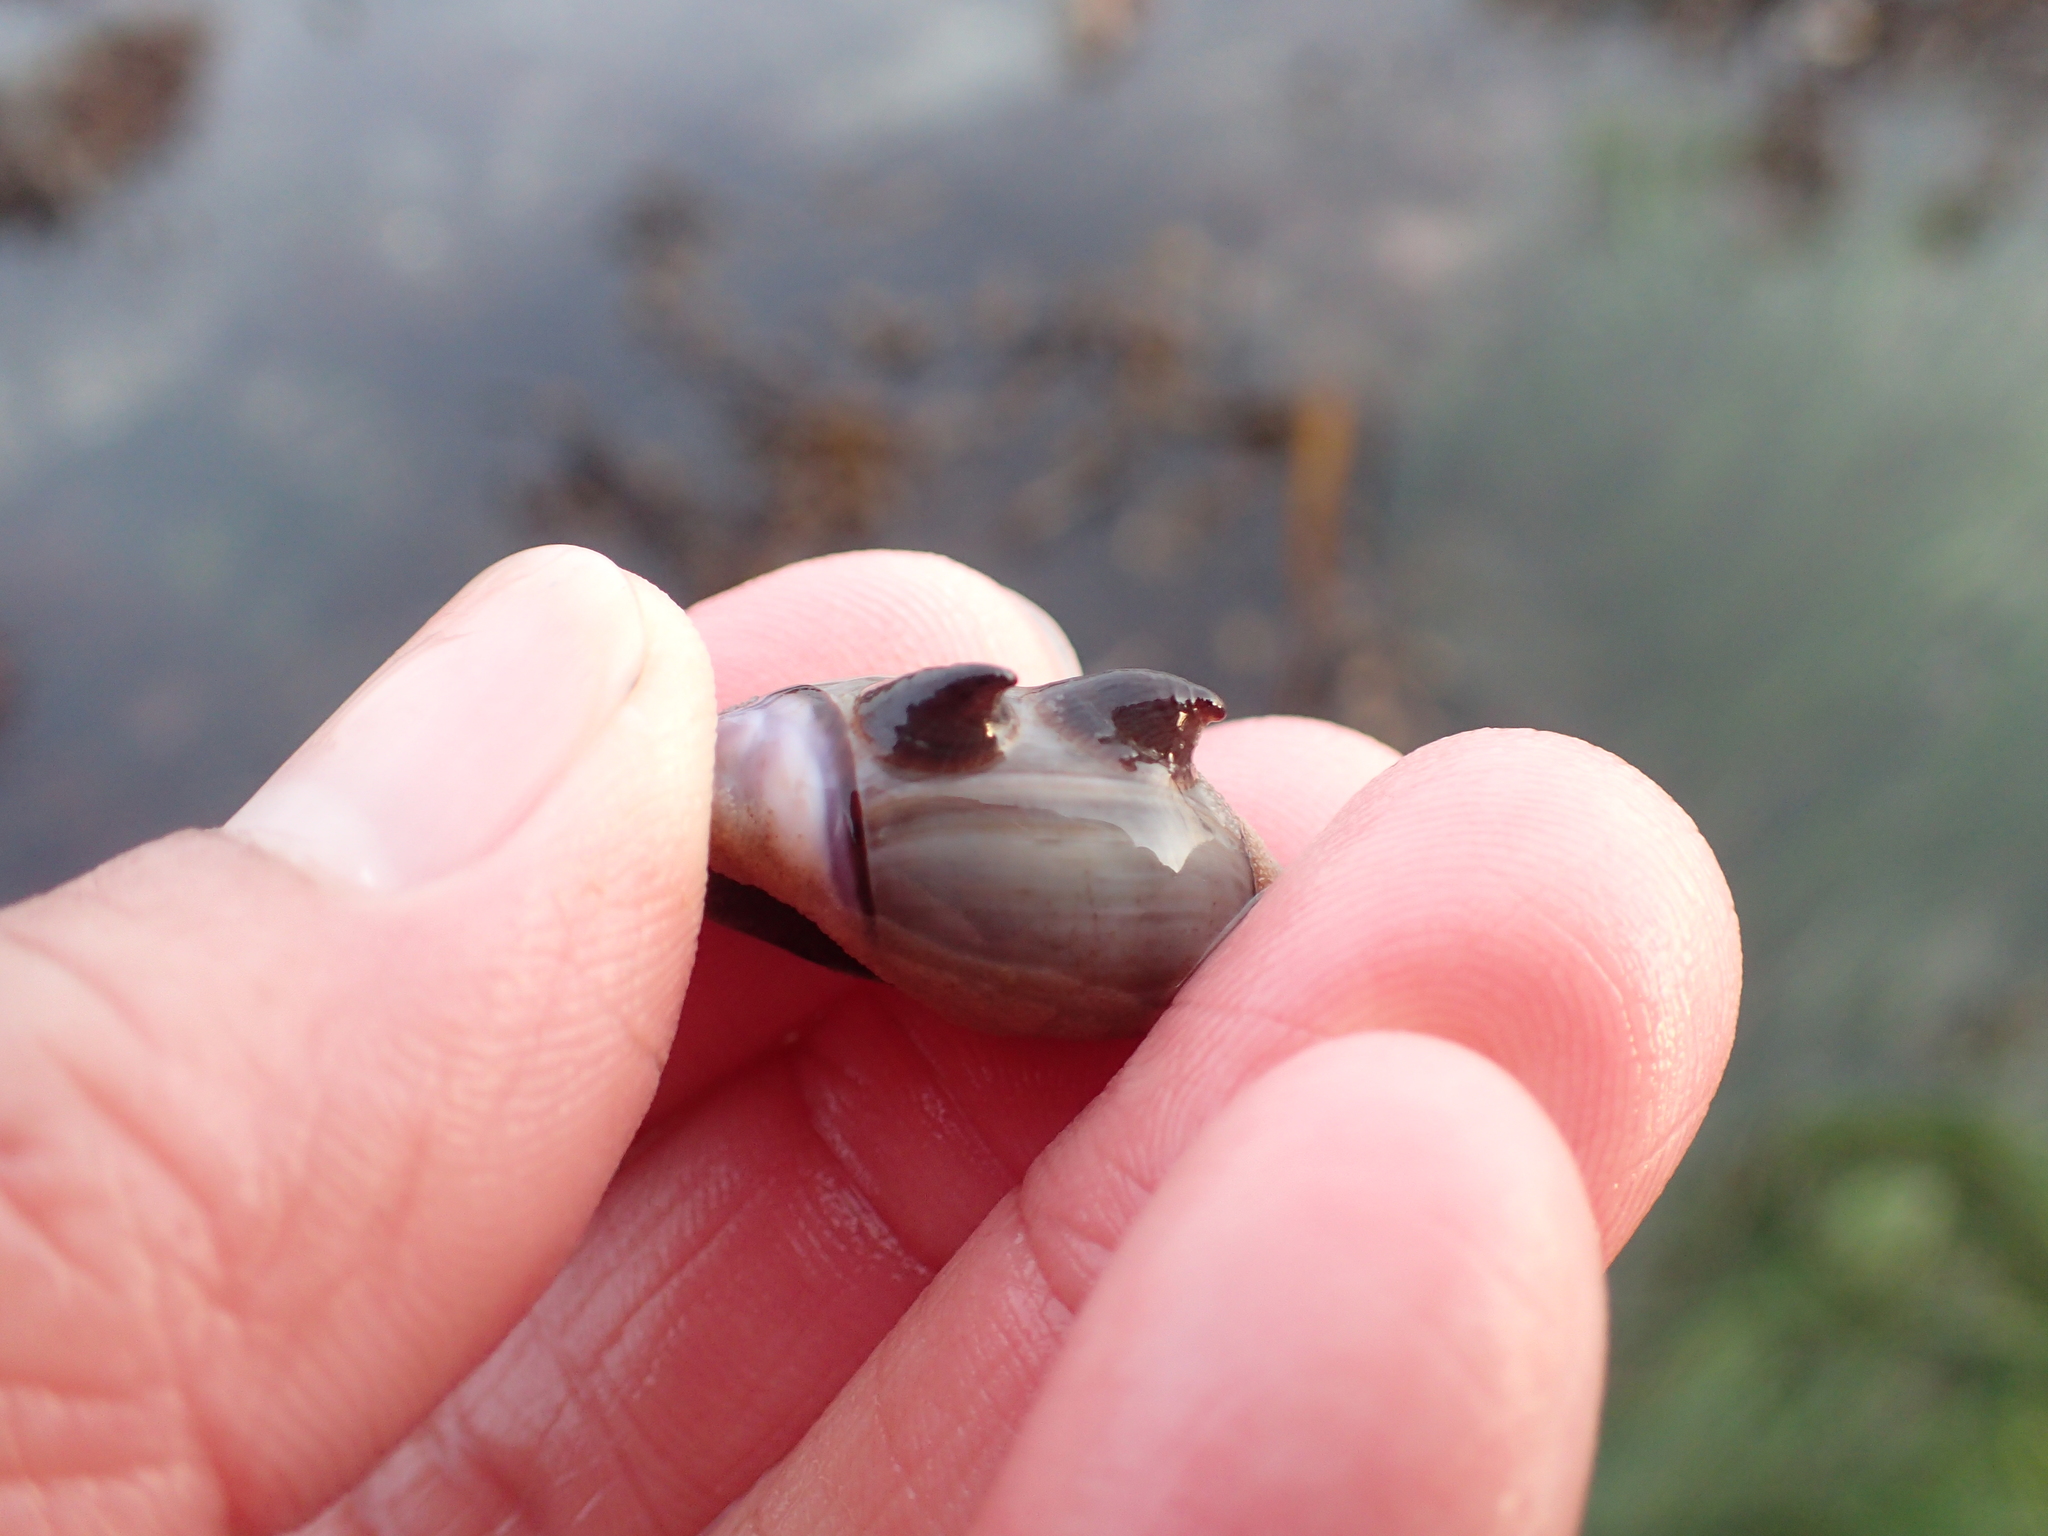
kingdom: Animalia
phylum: Mollusca
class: Gastropoda
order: Littorinimorpha
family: Calyptraeidae
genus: Crepidula
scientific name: Crepidula adunca
